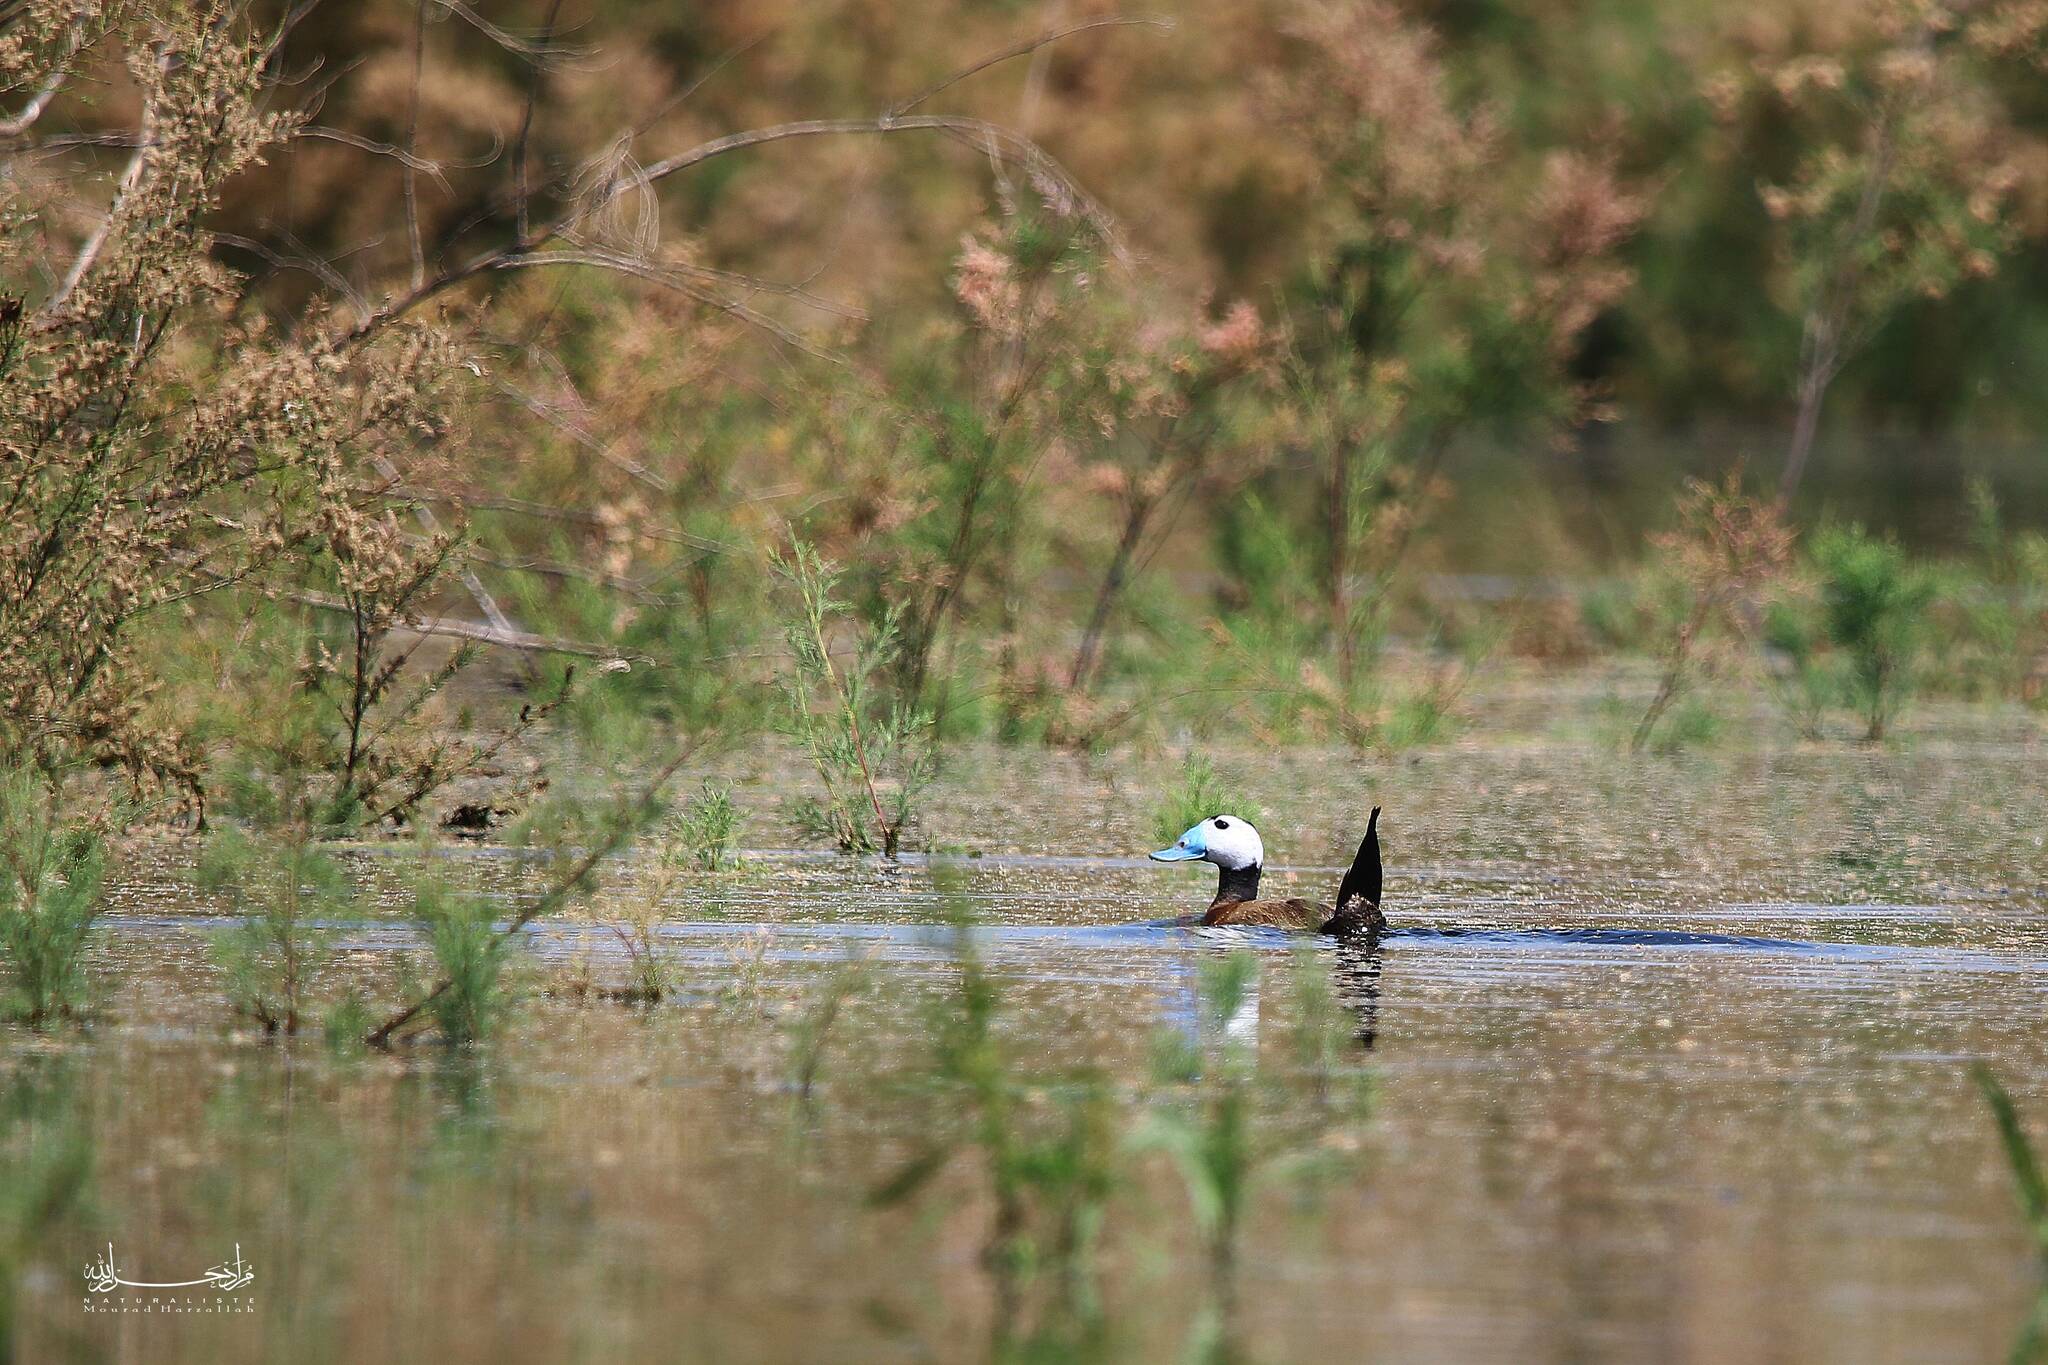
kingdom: Animalia
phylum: Chordata
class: Aves
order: Anseriformes
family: Anatidae
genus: Oxyura
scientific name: Oxyura leucocephala
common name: White-headed duck
